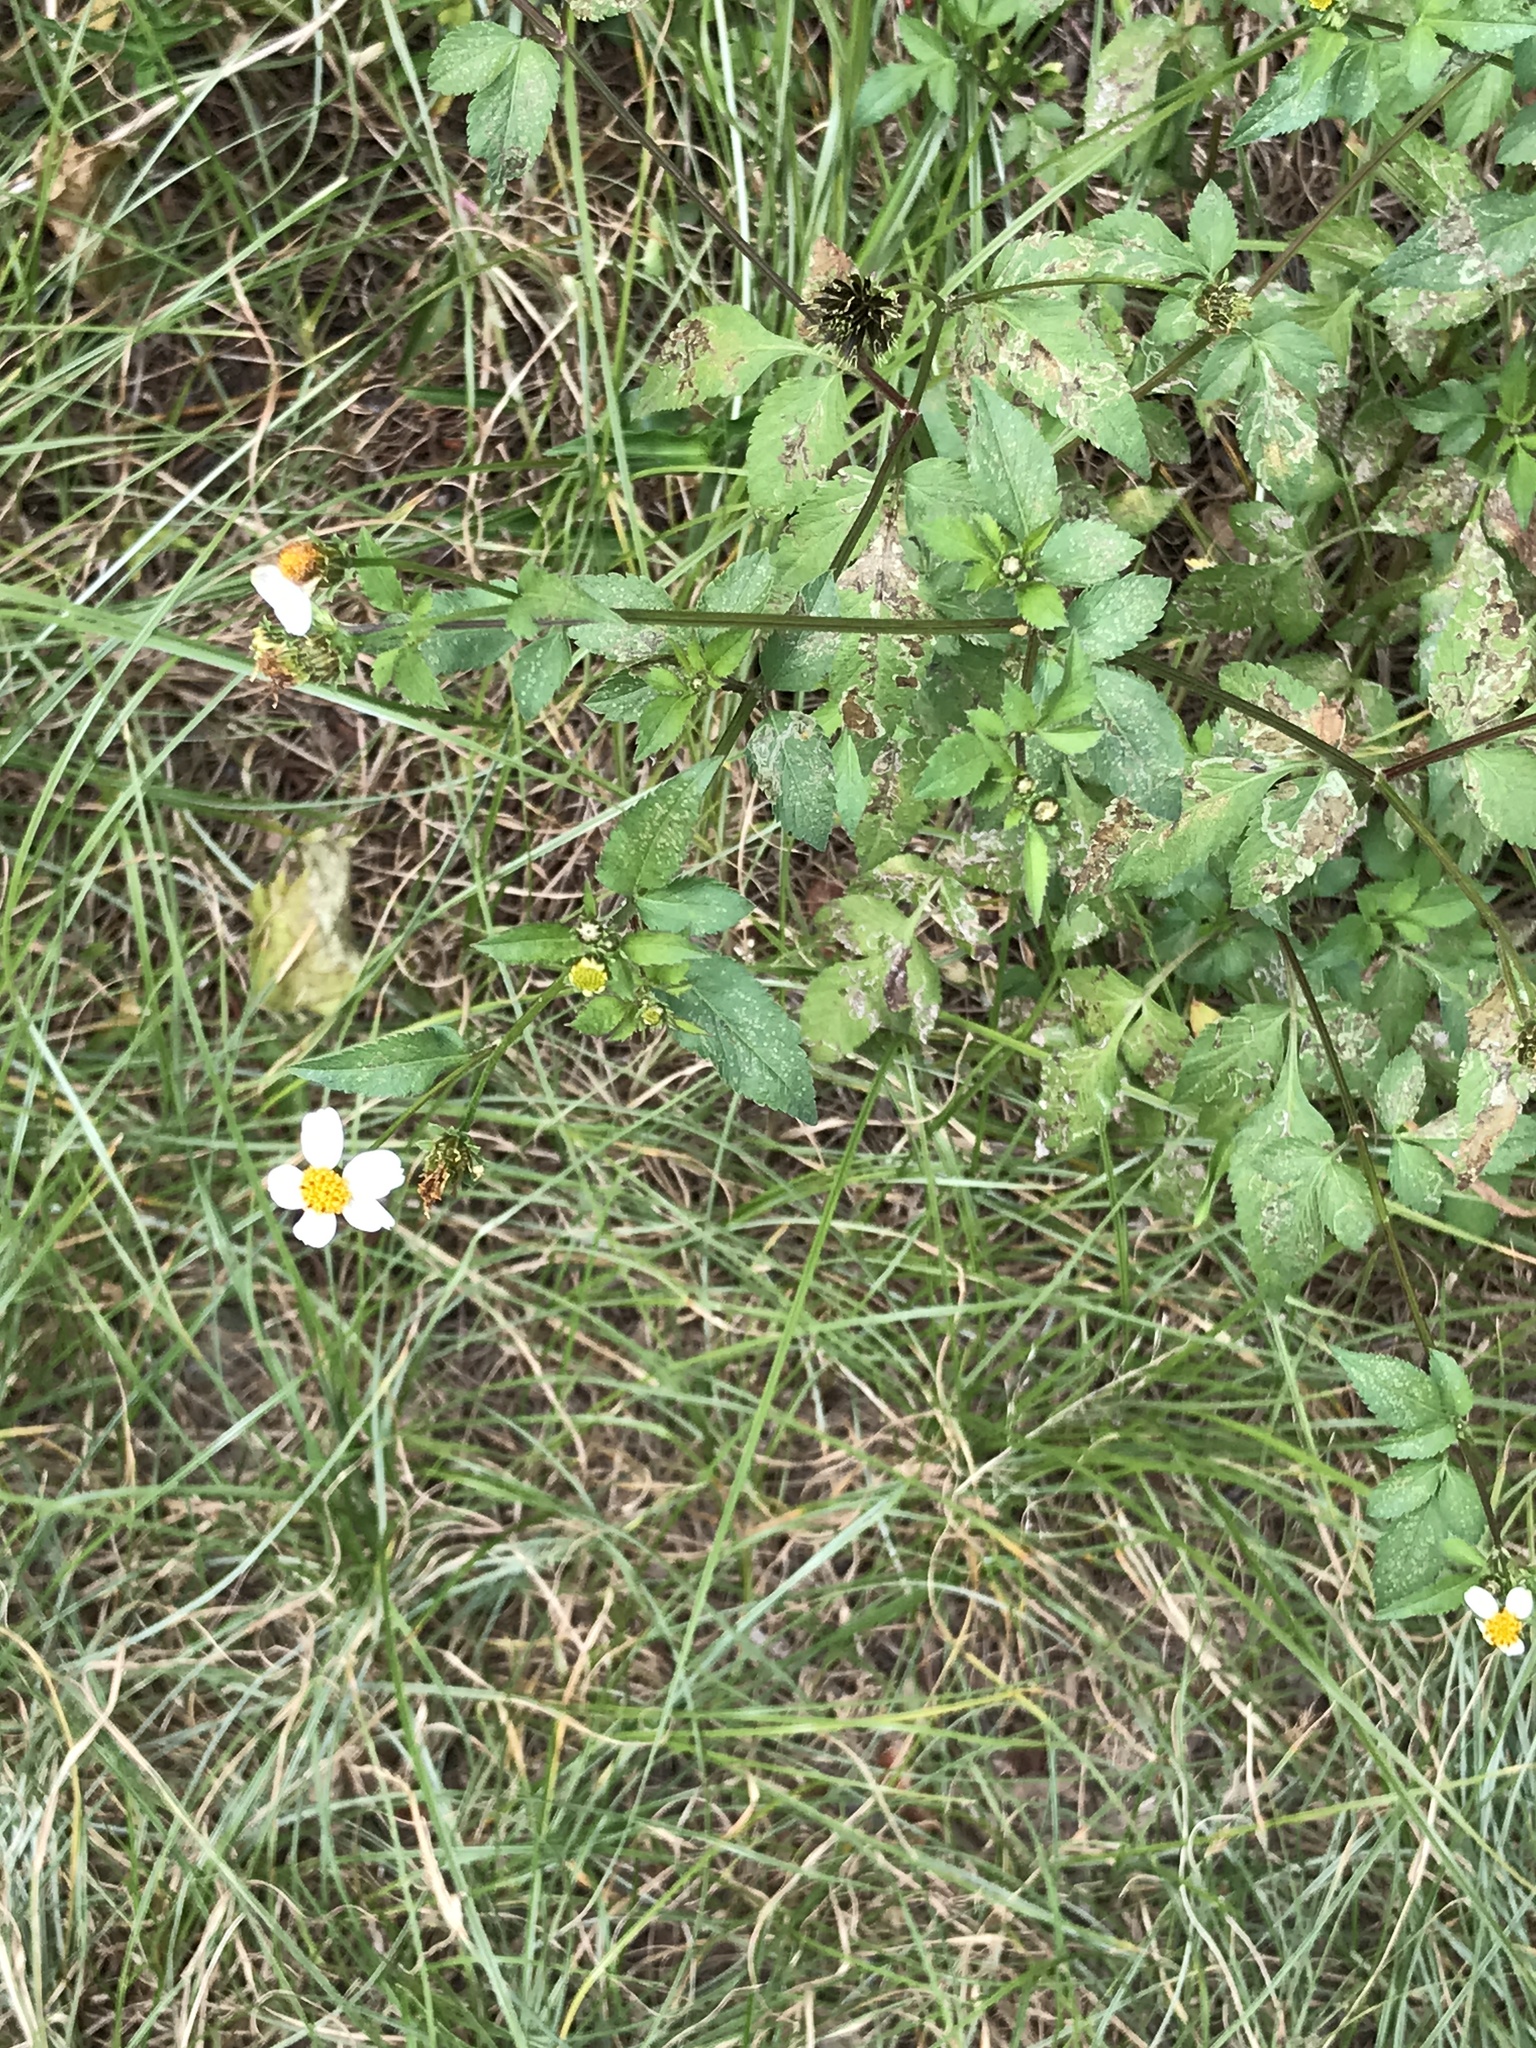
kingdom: Plantae
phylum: Tracheophyta
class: Magnoliopsida
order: Asterales
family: Asteraceae
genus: Bidens
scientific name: Bidens alba
